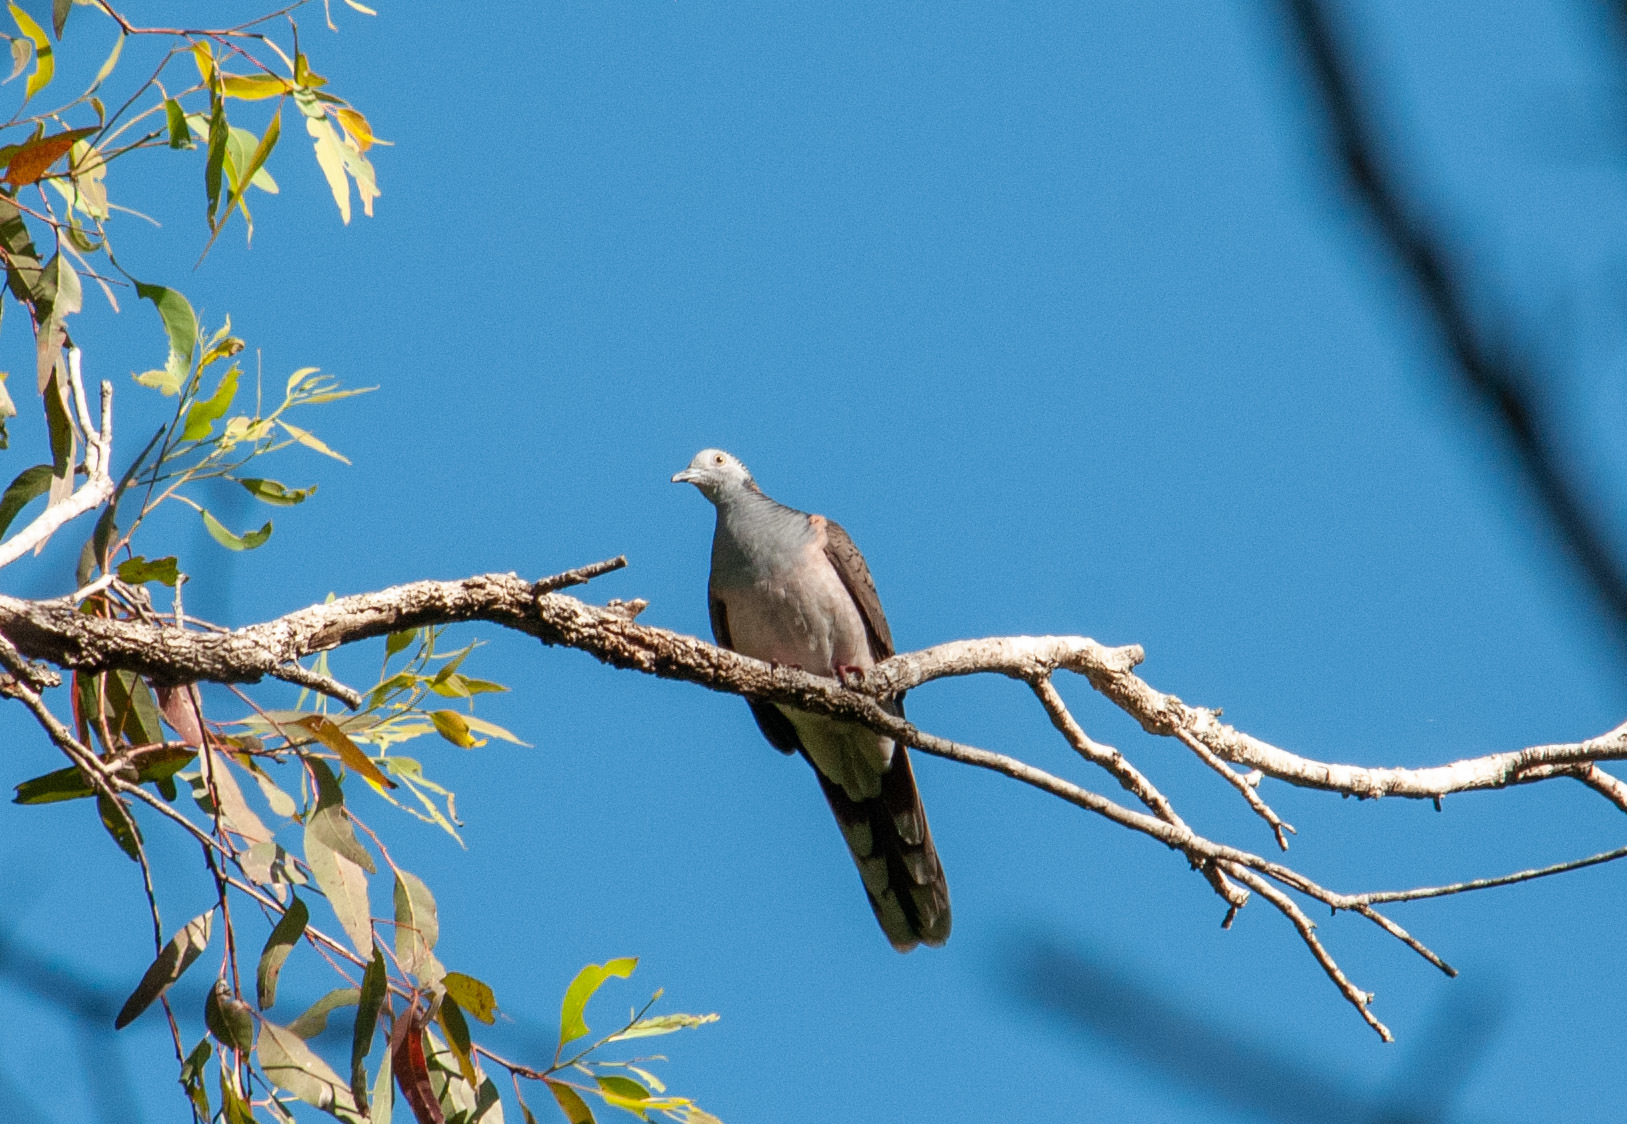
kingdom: Animalia
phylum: Chordata
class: Aves
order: Columbiformes
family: Columbidae
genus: Geopelia
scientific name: Geopelia humeralis
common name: Bar-shouldered dove
